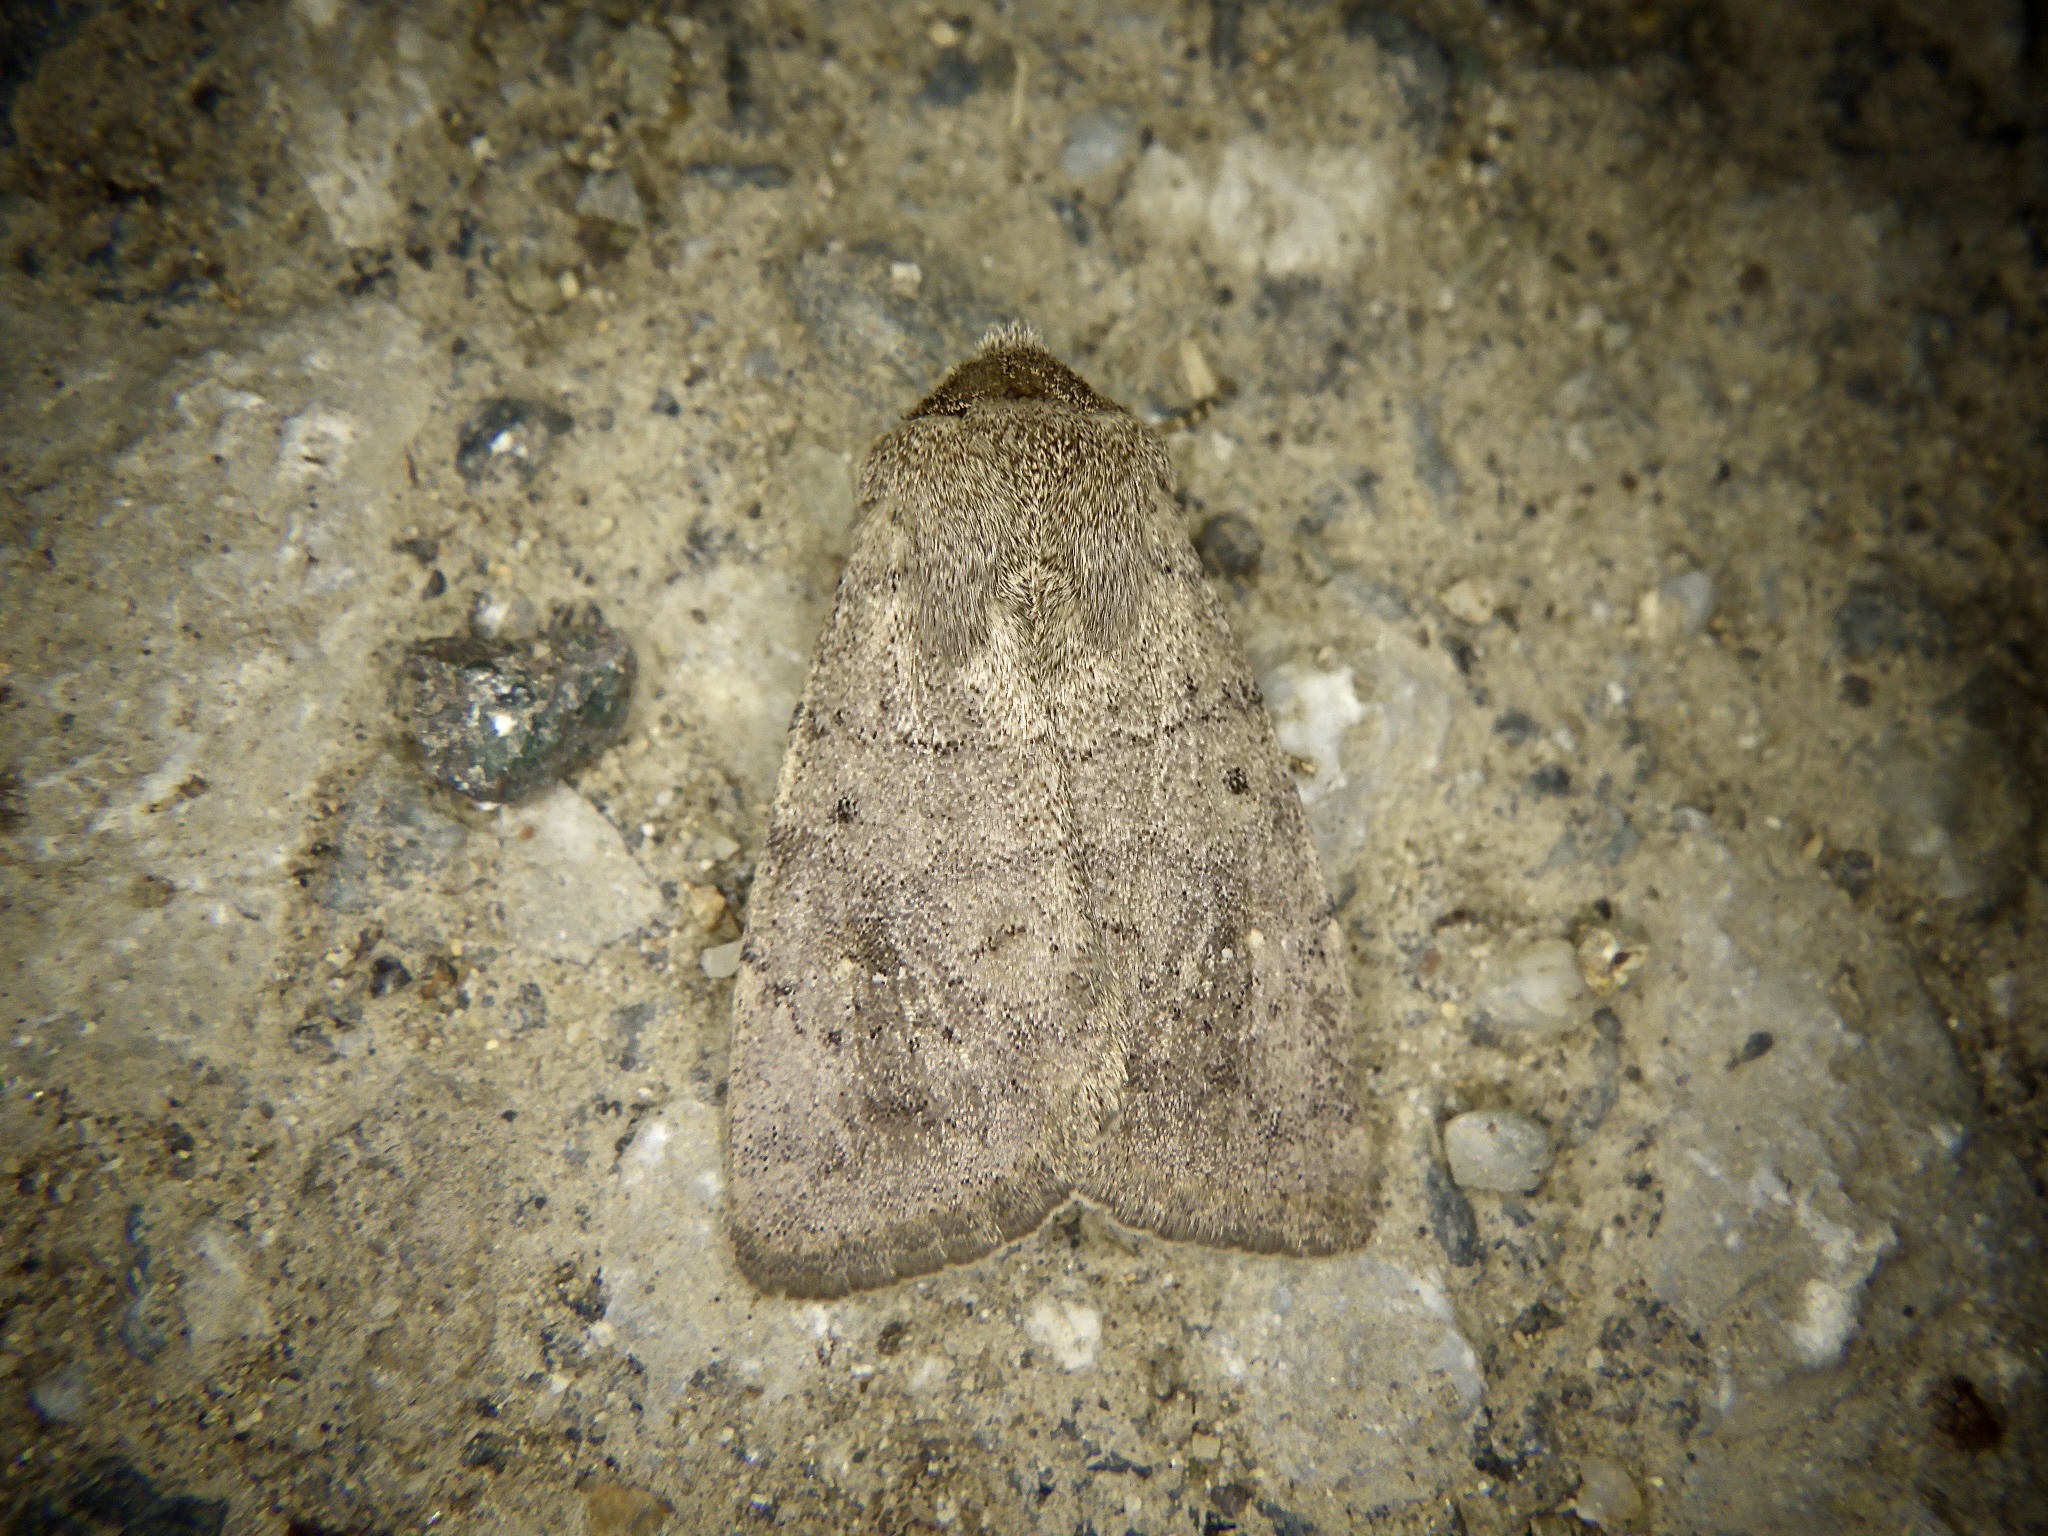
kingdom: Animalia
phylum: Arthropoda
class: Insecta
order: Lepidoptera
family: Noctuidae
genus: Athetis
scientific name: Athetis cinerascens
